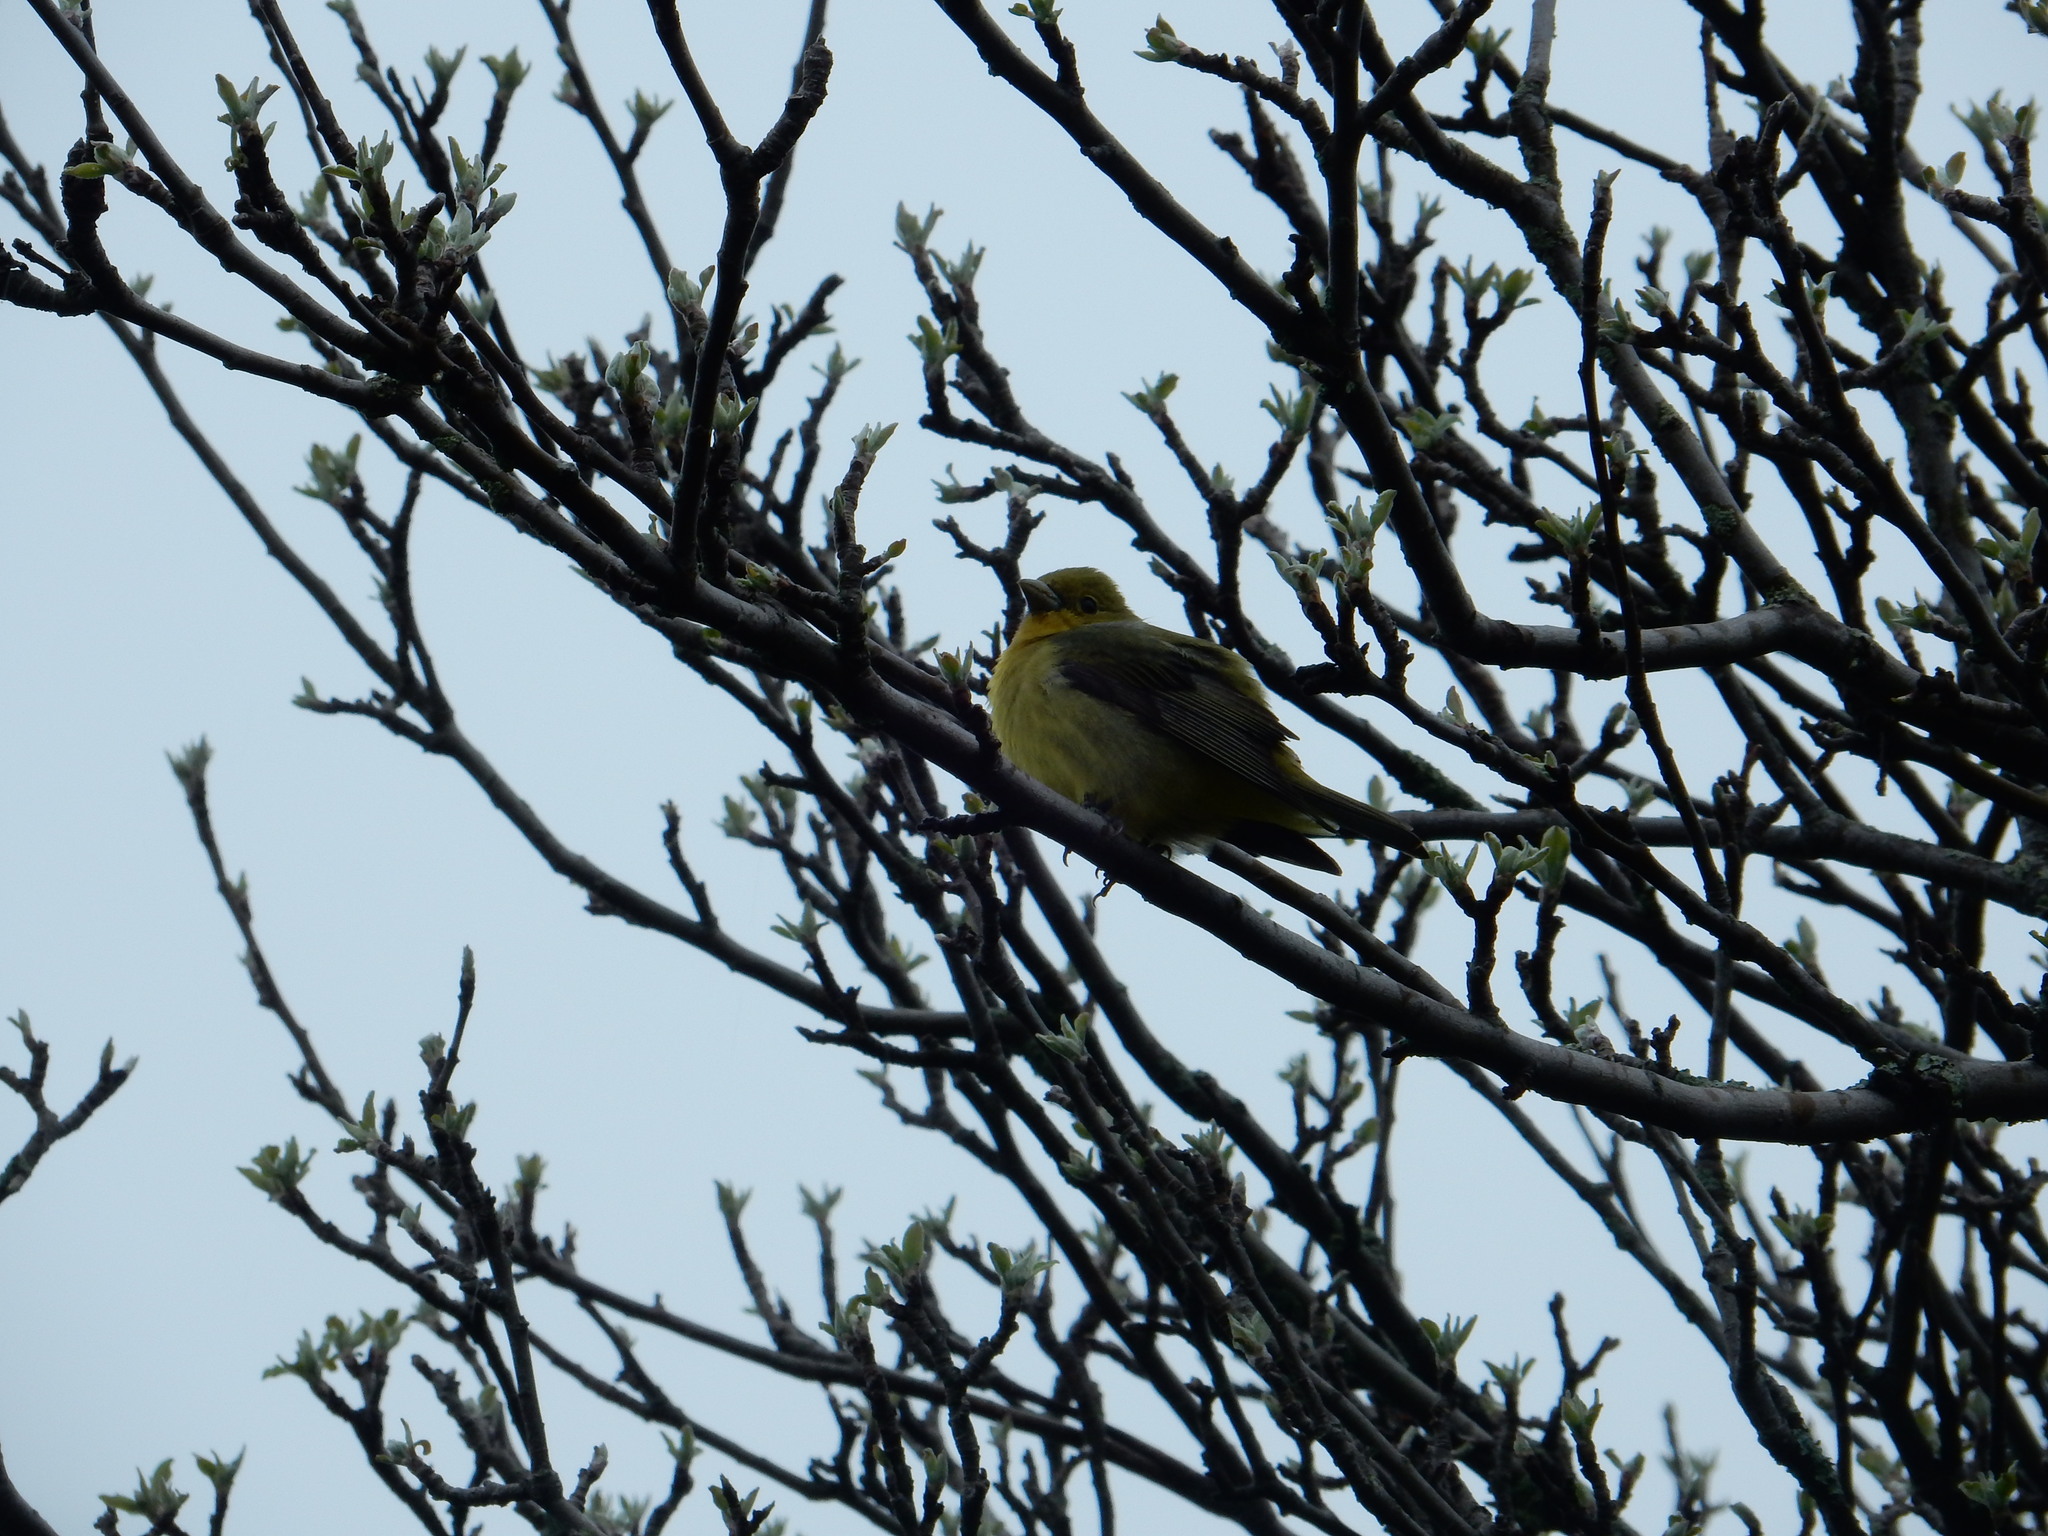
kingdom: Animalia
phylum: Chordata
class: Aves
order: Passeriformes
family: Cardinalidae
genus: Piranga
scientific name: Piranga olivacea
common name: Scarlet tanager
